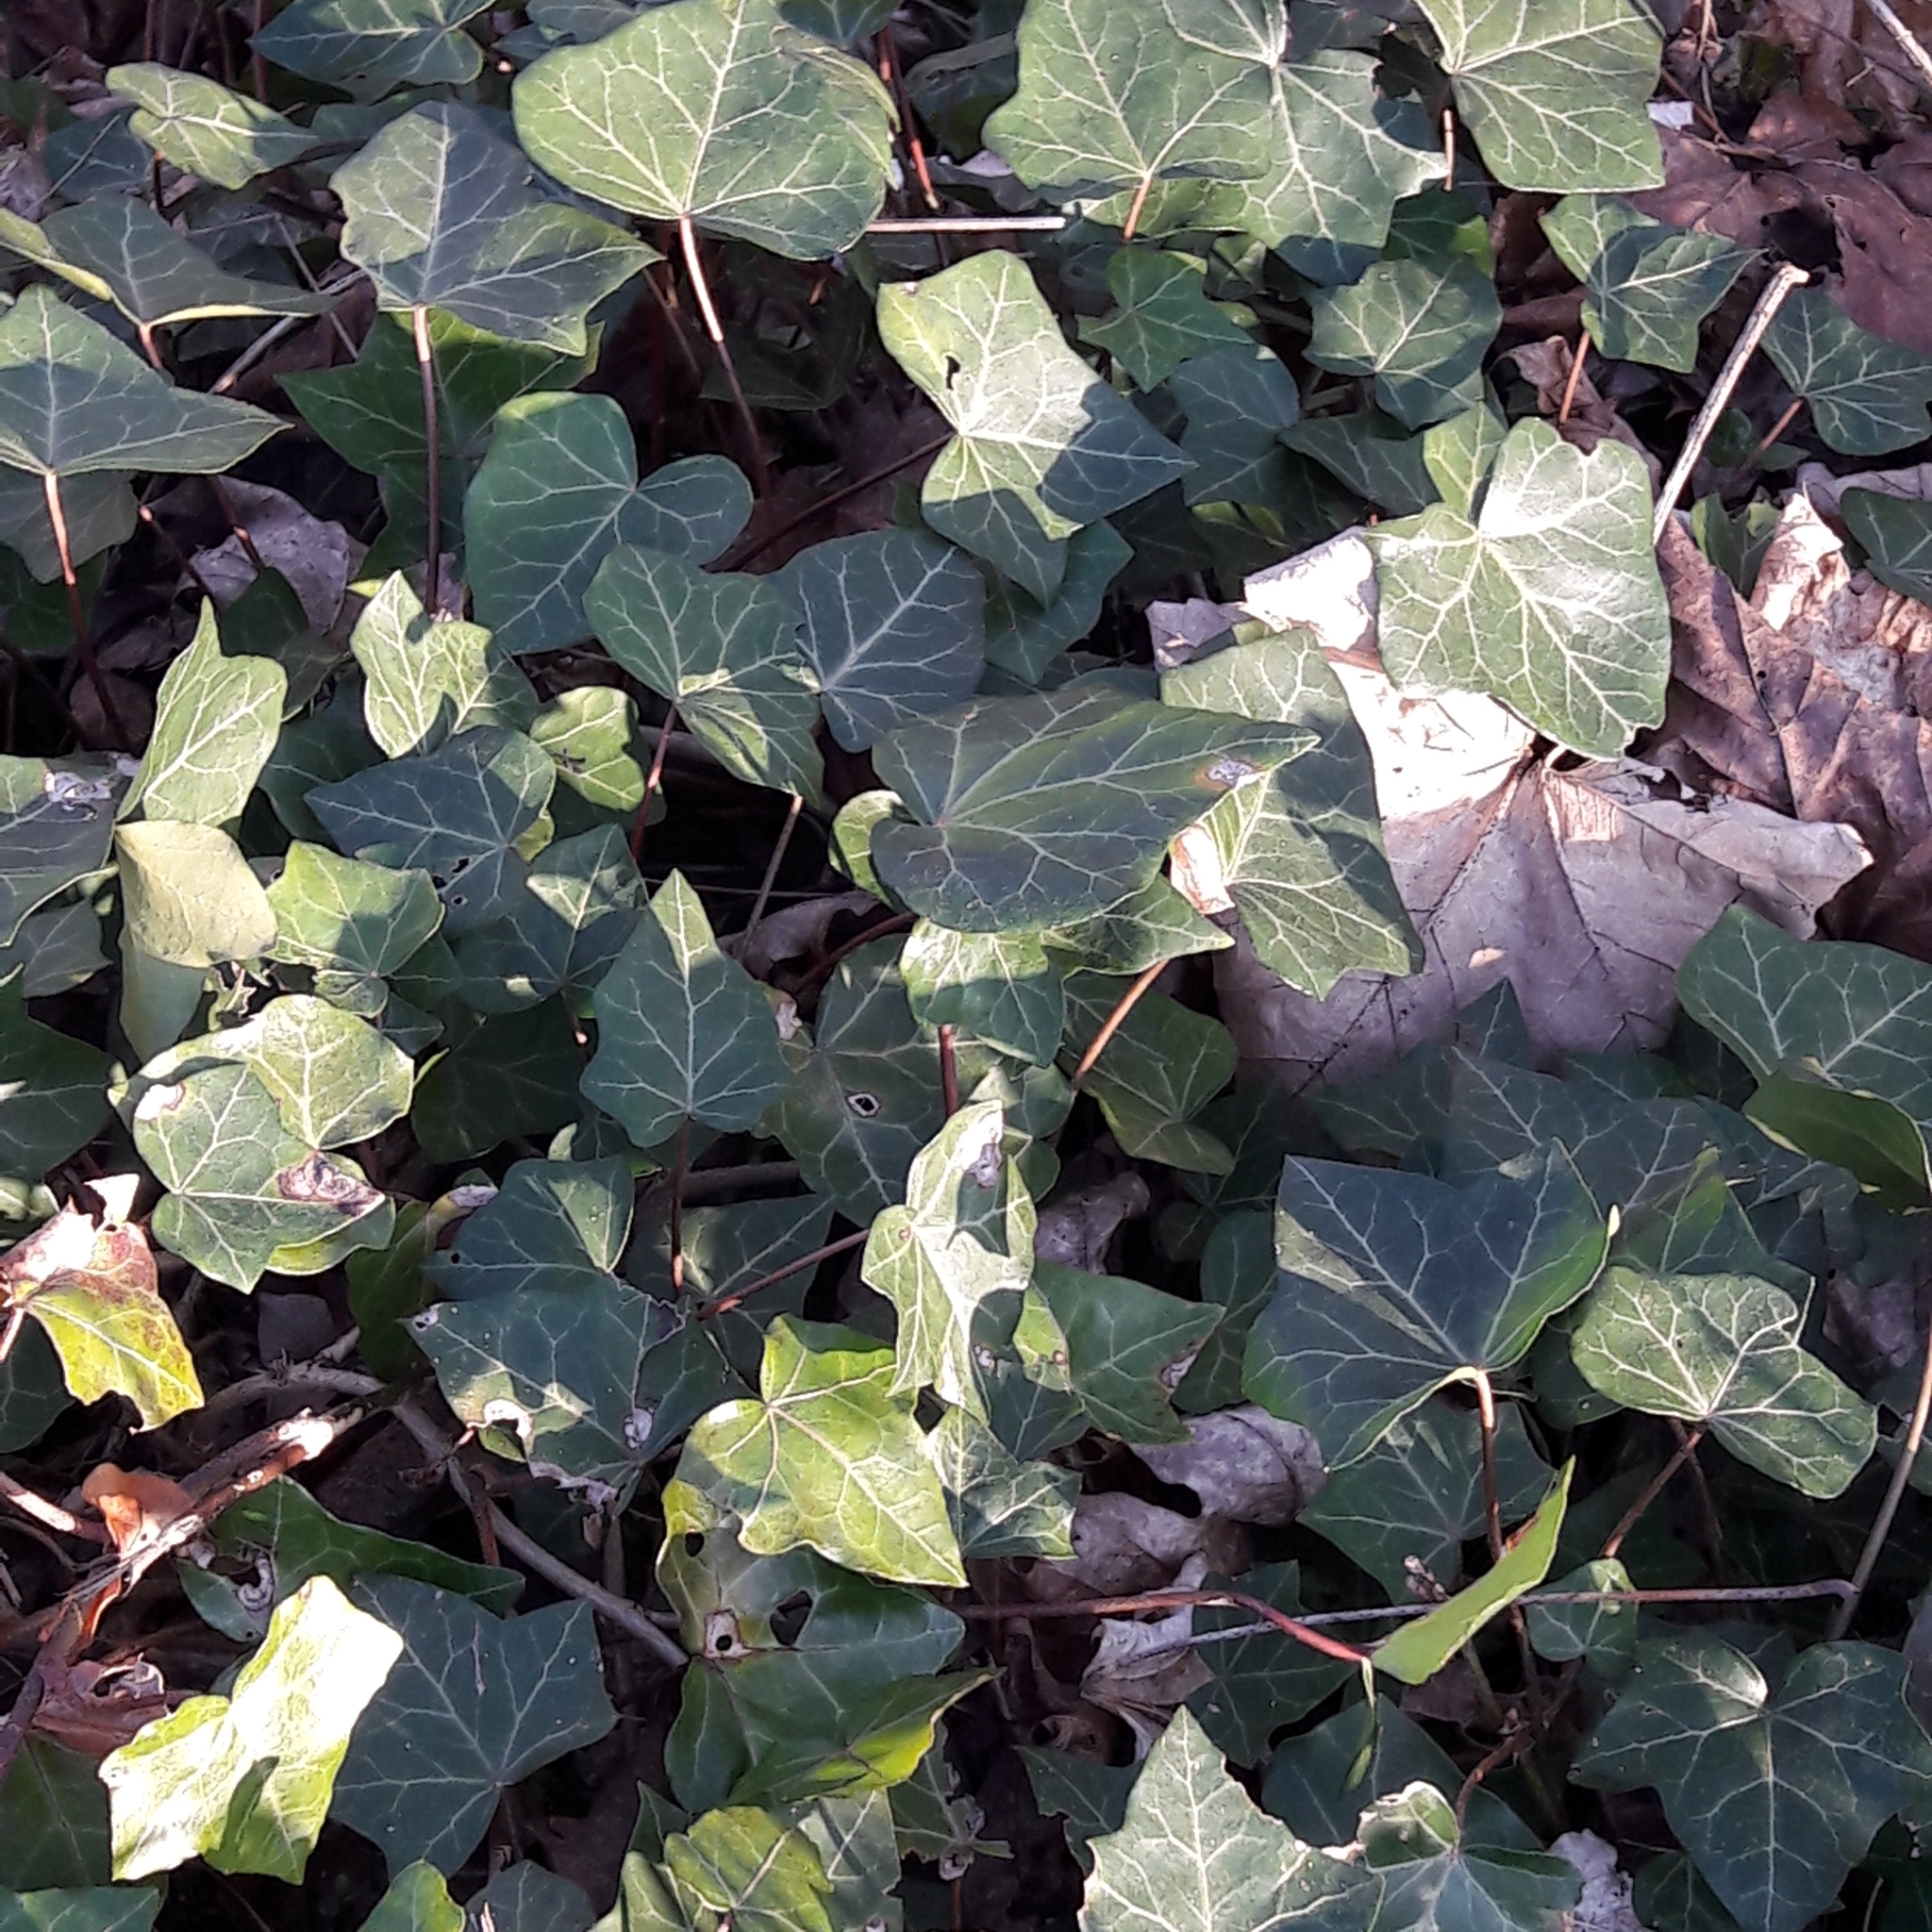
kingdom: Plantae
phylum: Tracheophyta
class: Magnoliopsida
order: Apiales
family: Araliaceae
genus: Hedera
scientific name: Hedera helix
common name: Ivy
